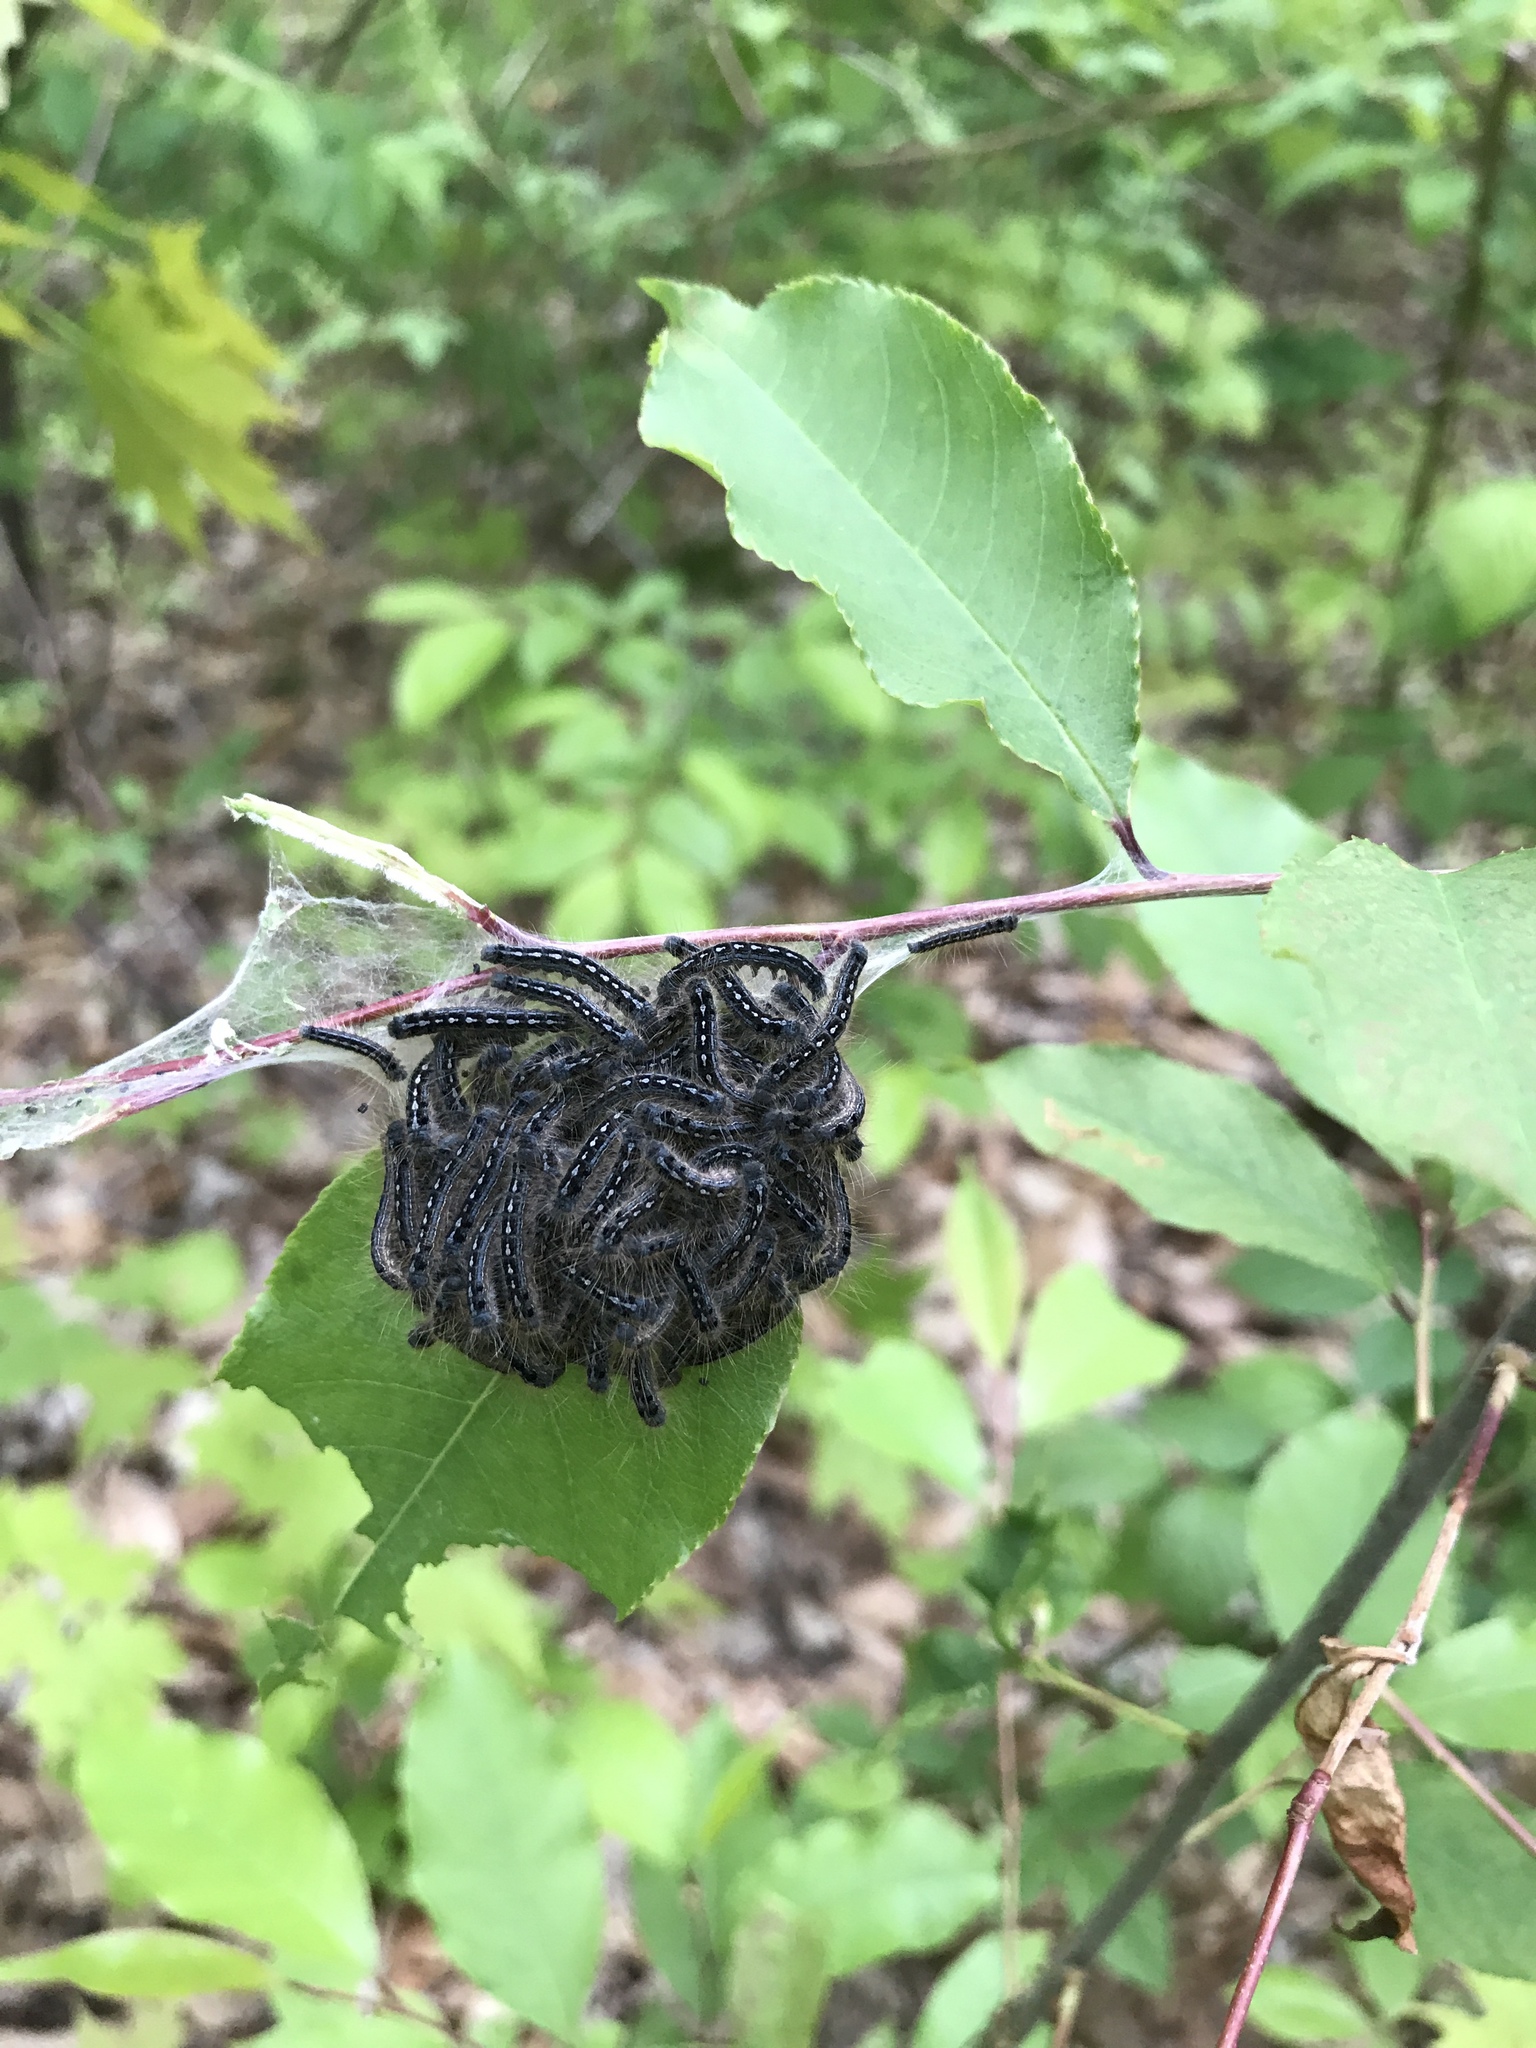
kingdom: Animalia
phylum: Arthropoda
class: Insecta
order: Lepidoptera
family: Lasiocampidae
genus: Malacosoma
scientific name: Malacosoma americana
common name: Eastern tent caterpillar moth
